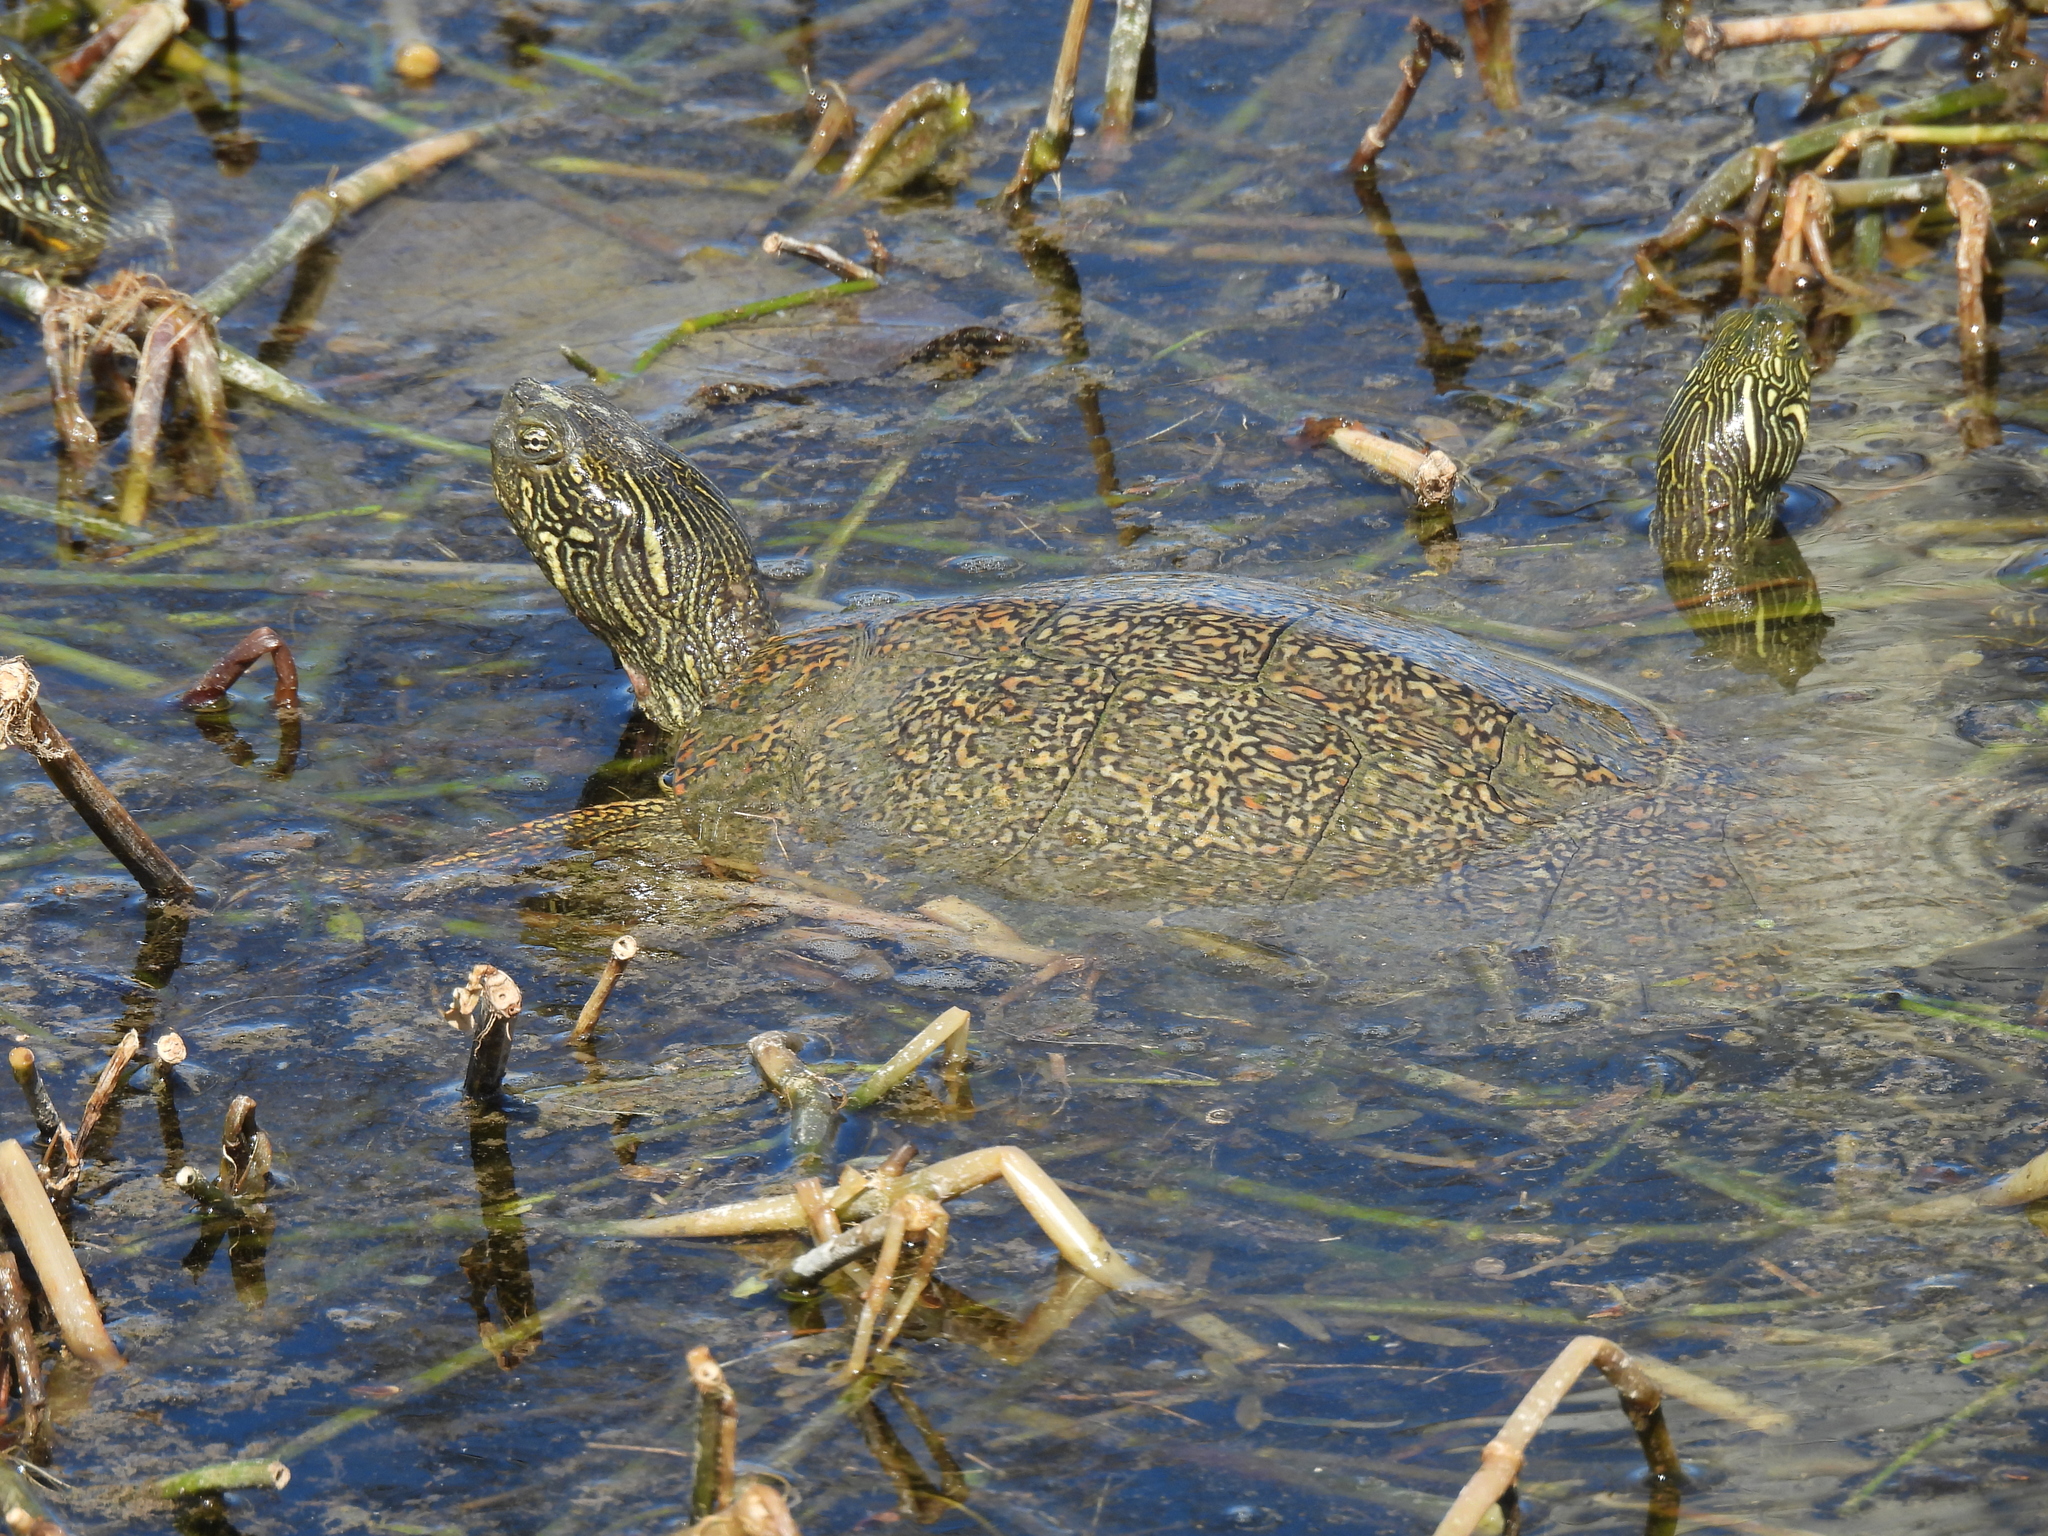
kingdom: Animalia
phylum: Chordata
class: Testudines
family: Emydidae
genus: Pseudemys
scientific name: Pseudemys texana
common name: Texas river cooter
